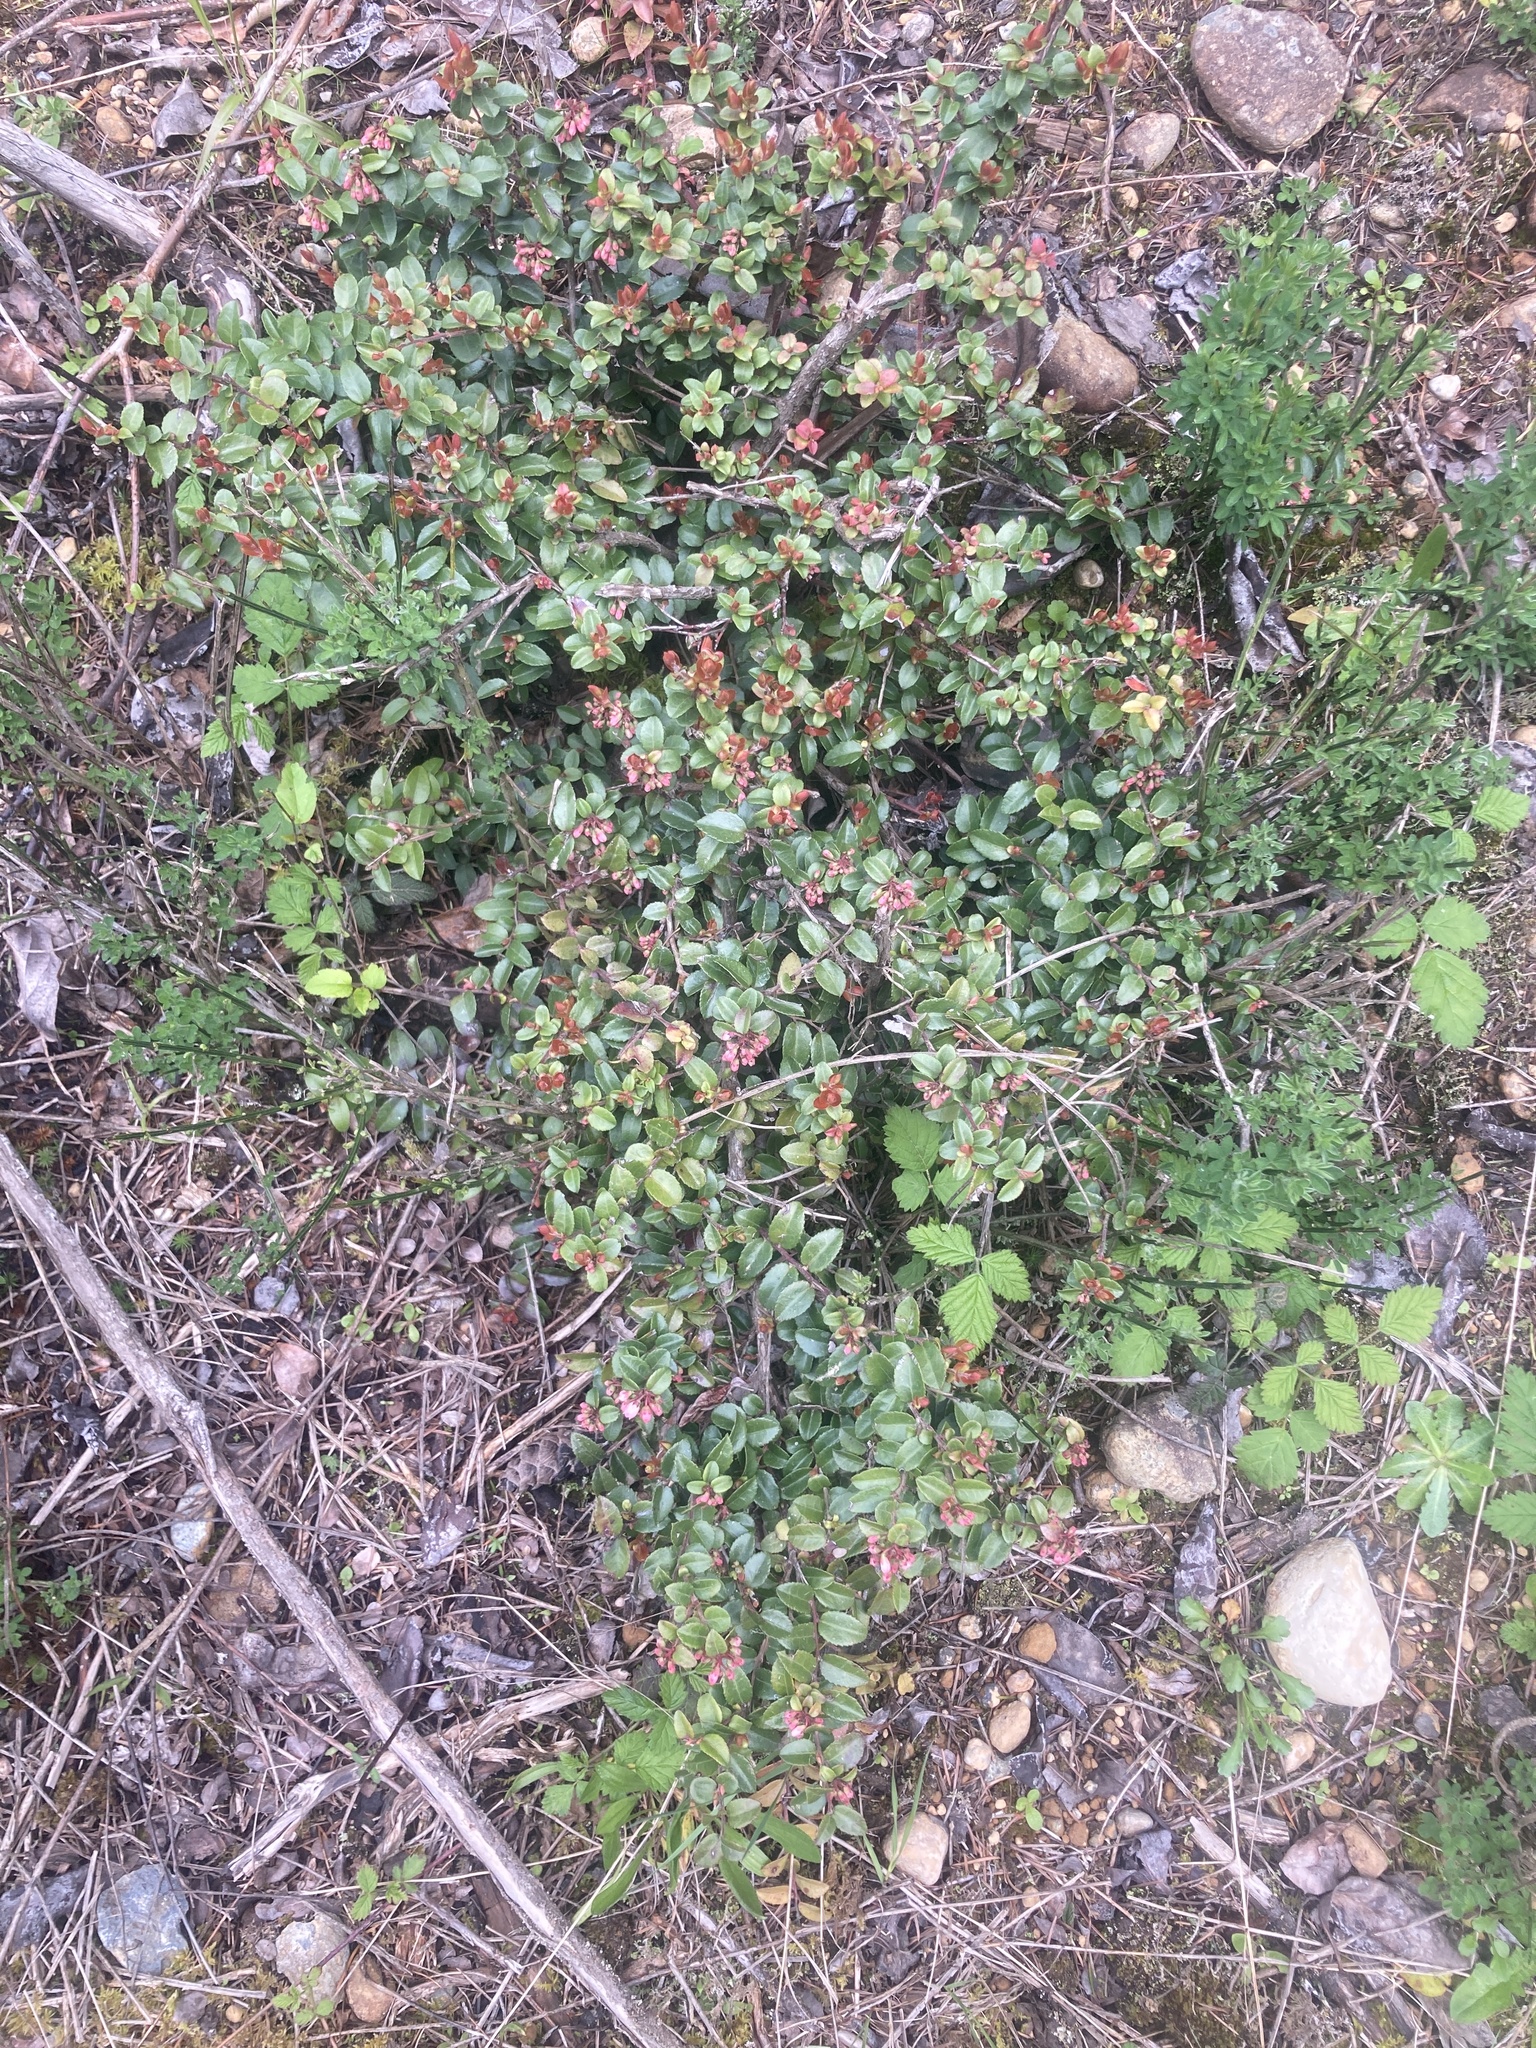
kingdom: Plantae
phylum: Tracheophyta
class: Magnoliopsida
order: Ericales
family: Ericaceae
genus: Vaccinium
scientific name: Vaccinium ovatum
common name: California-huckleberry
